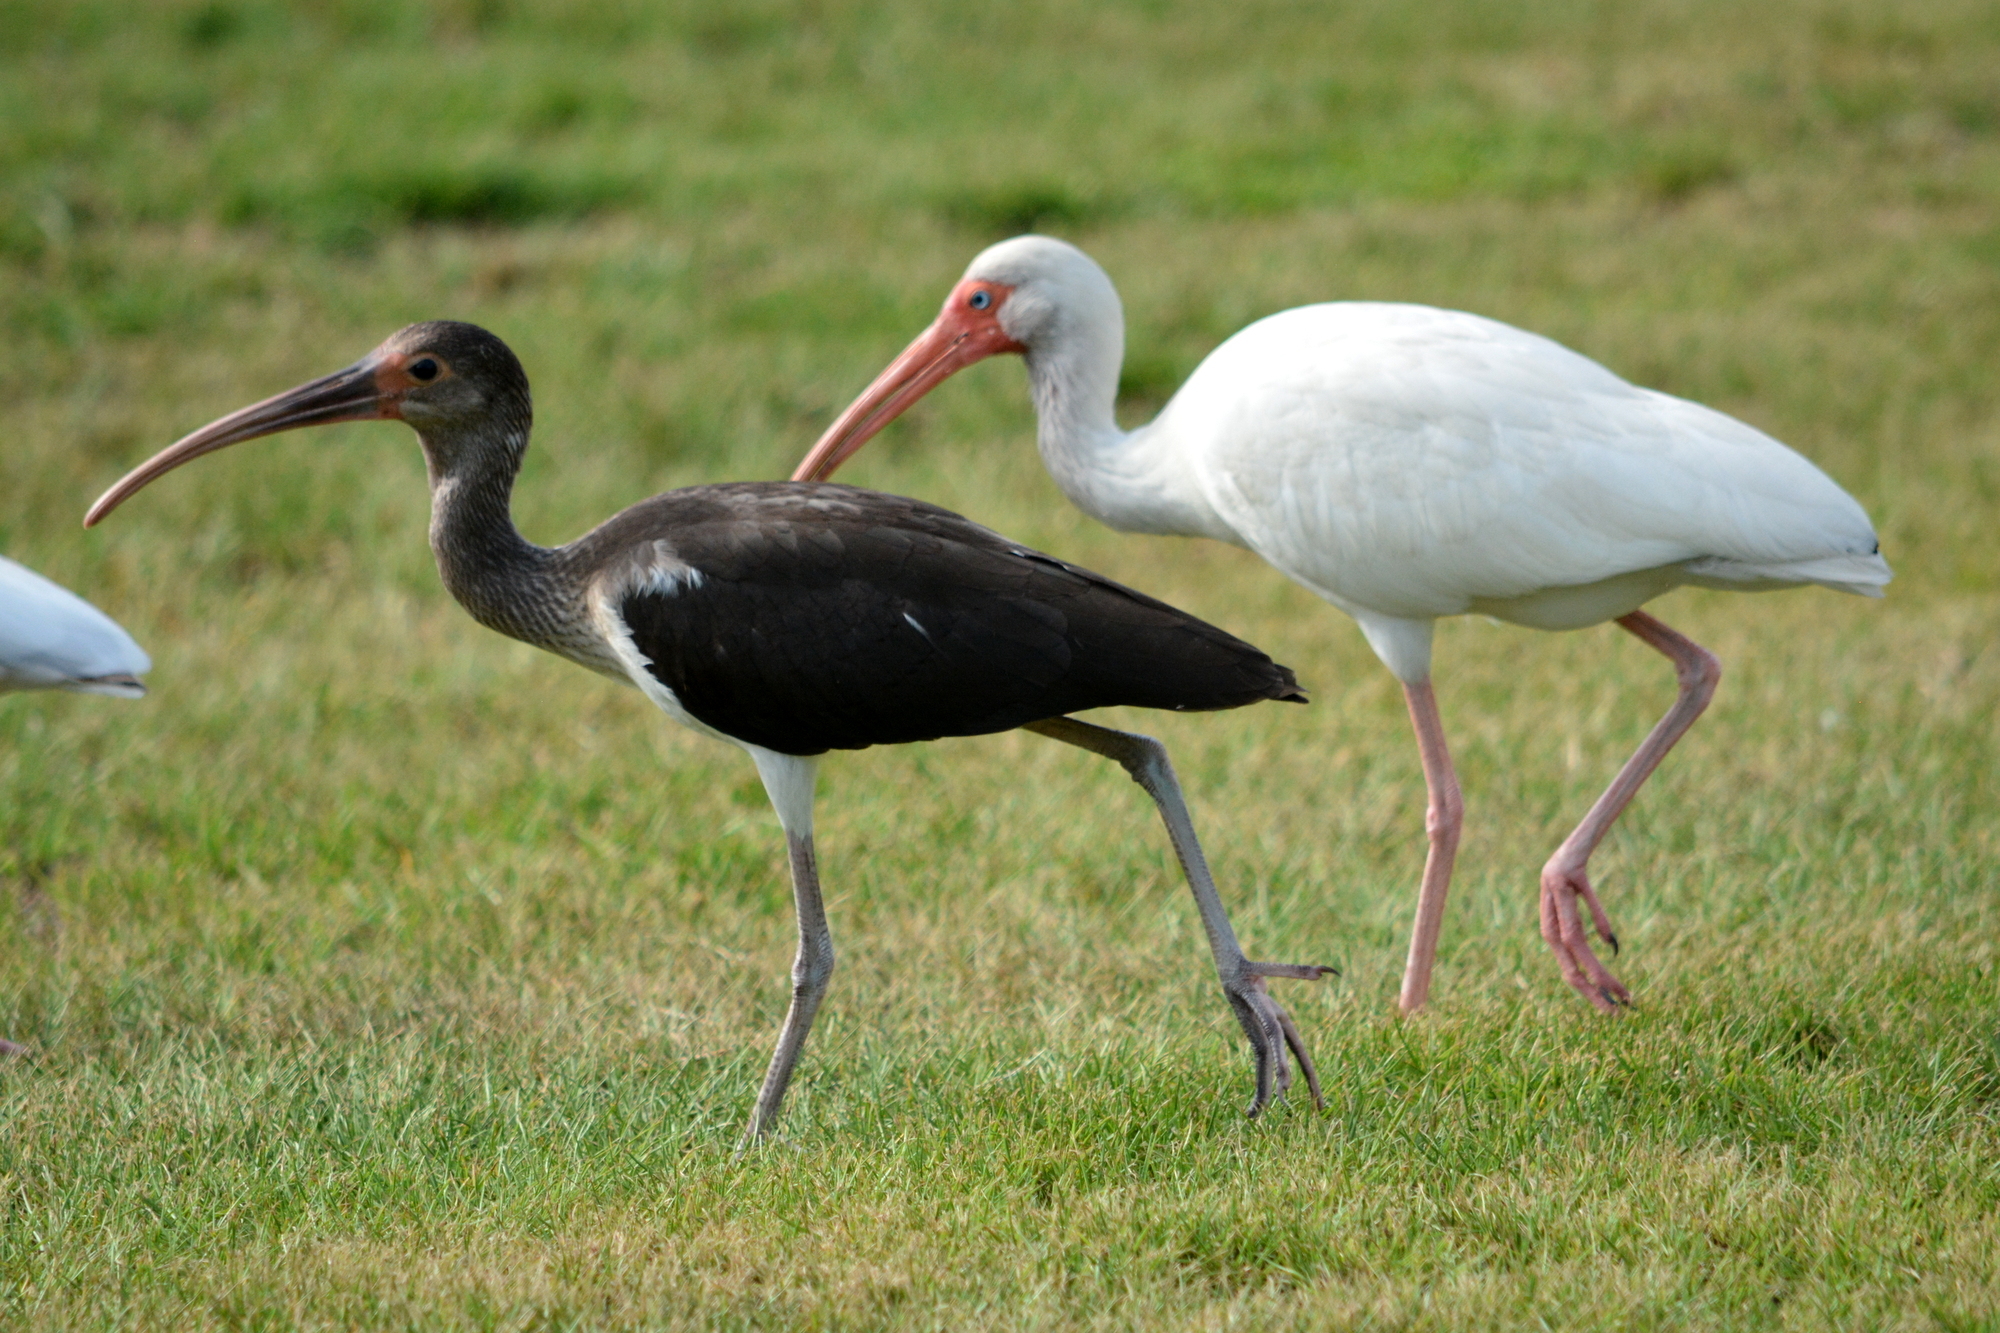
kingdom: Animalia
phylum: Chordata
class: Aves
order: Pelecaniformes
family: Threskiornithidae
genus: Eudocimus
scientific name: Eudocimus albus
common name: White ibis
